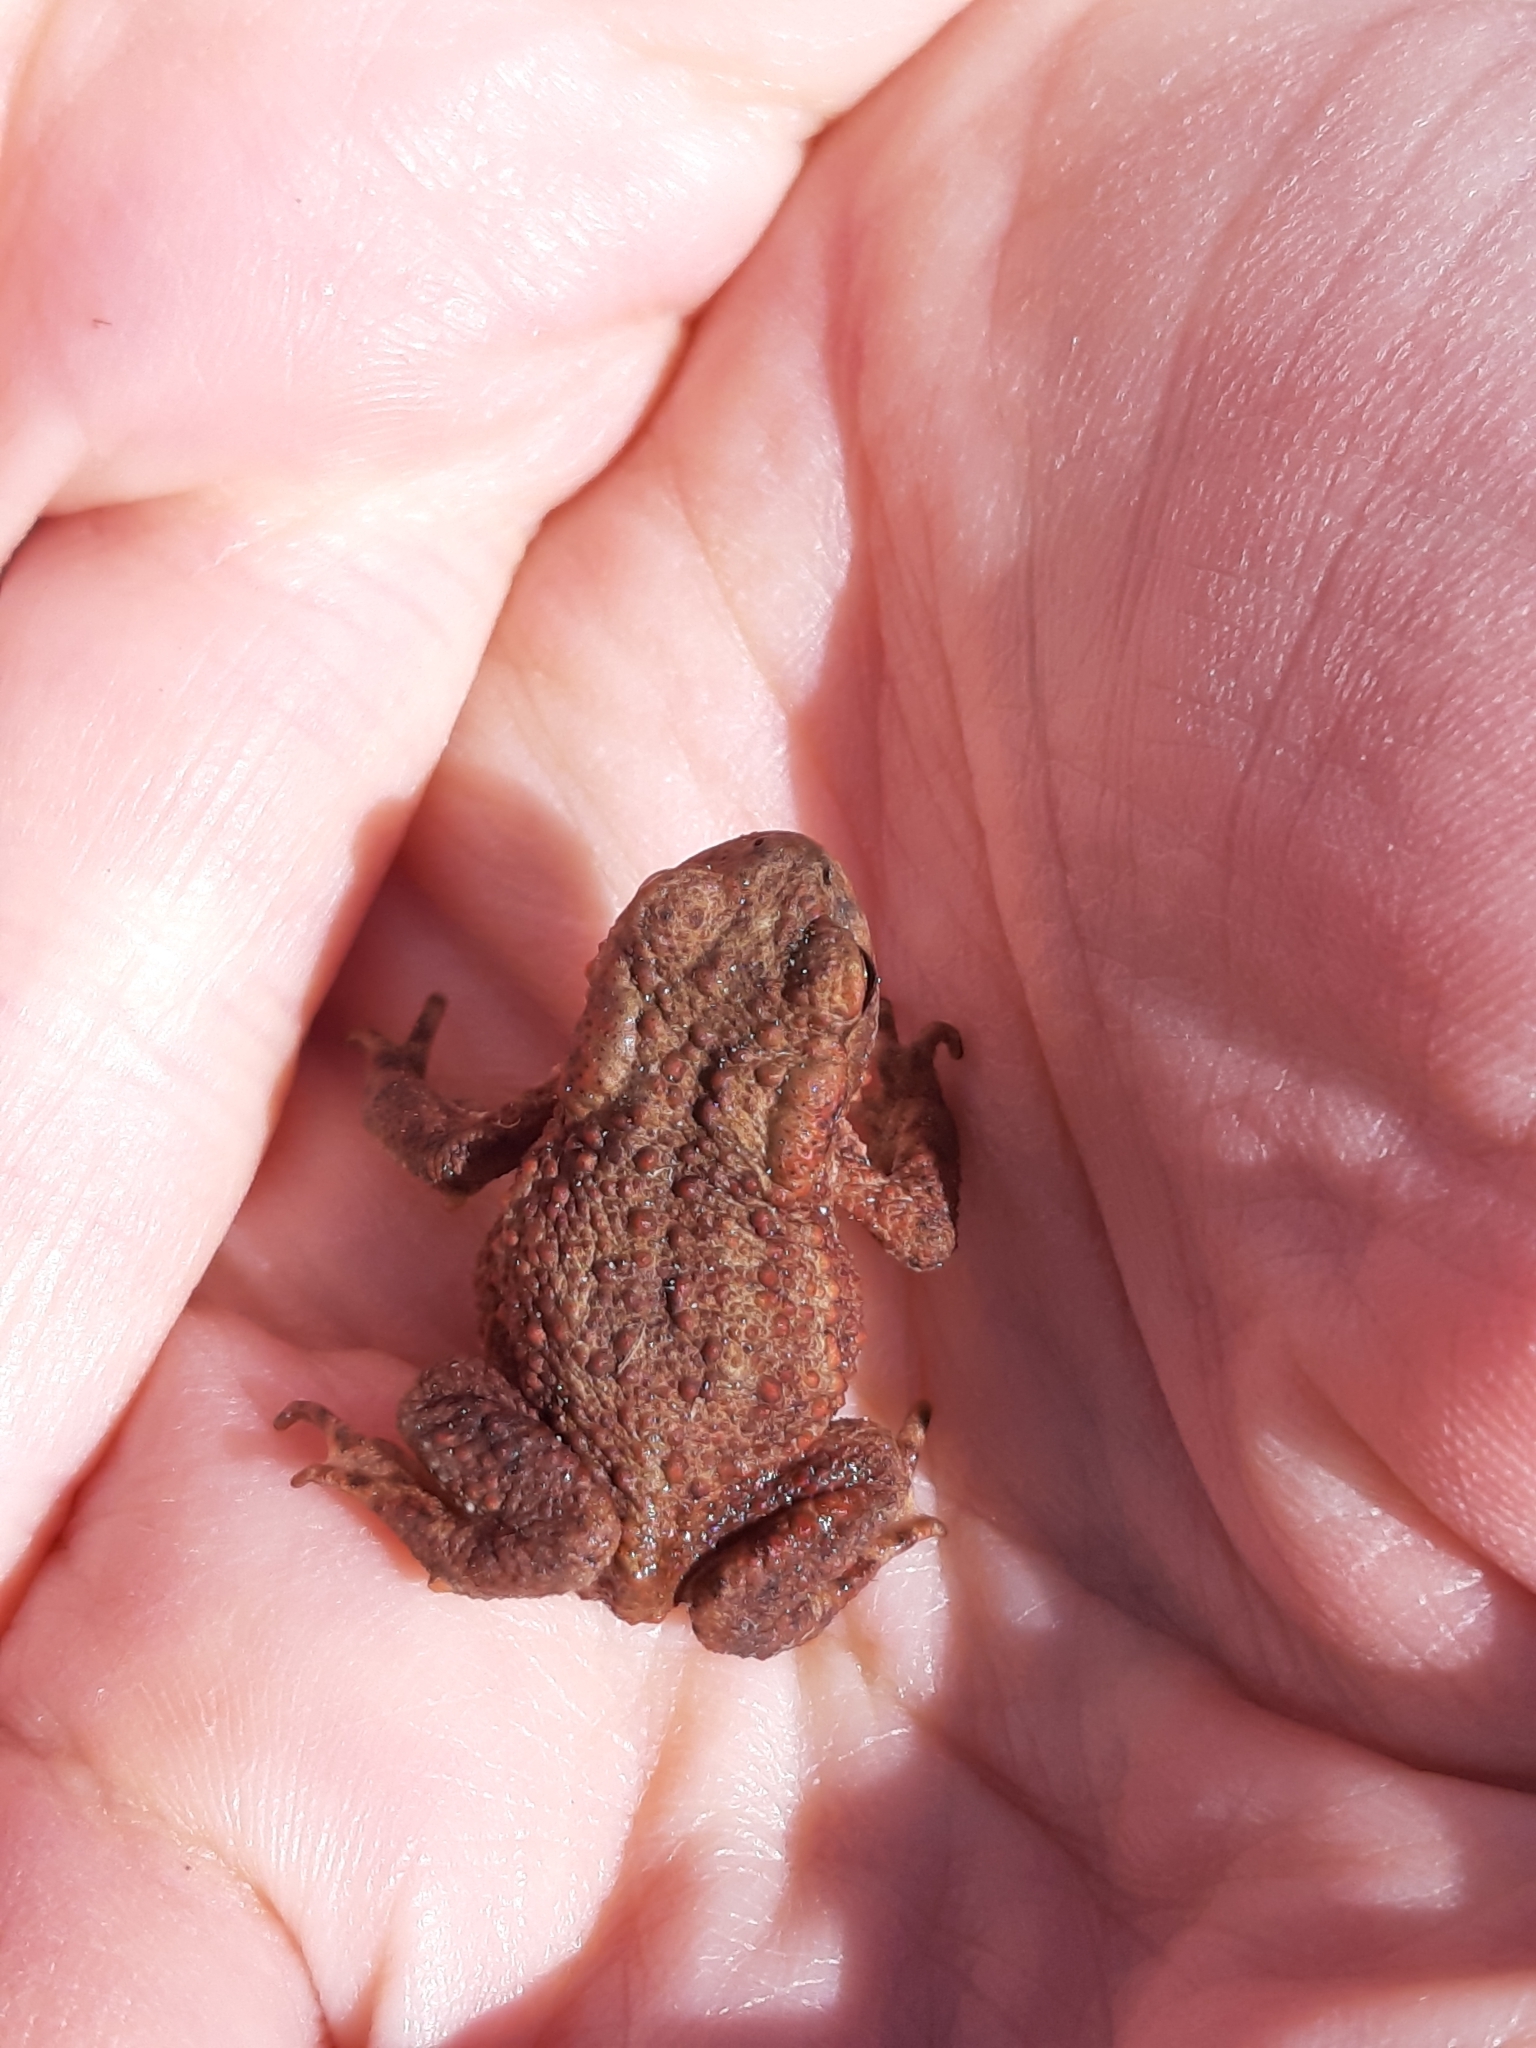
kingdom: Animalia
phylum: Chordata
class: Amphibia
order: Anura
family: Bufonidae
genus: Bufo
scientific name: Bufo bufo
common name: Common toad
